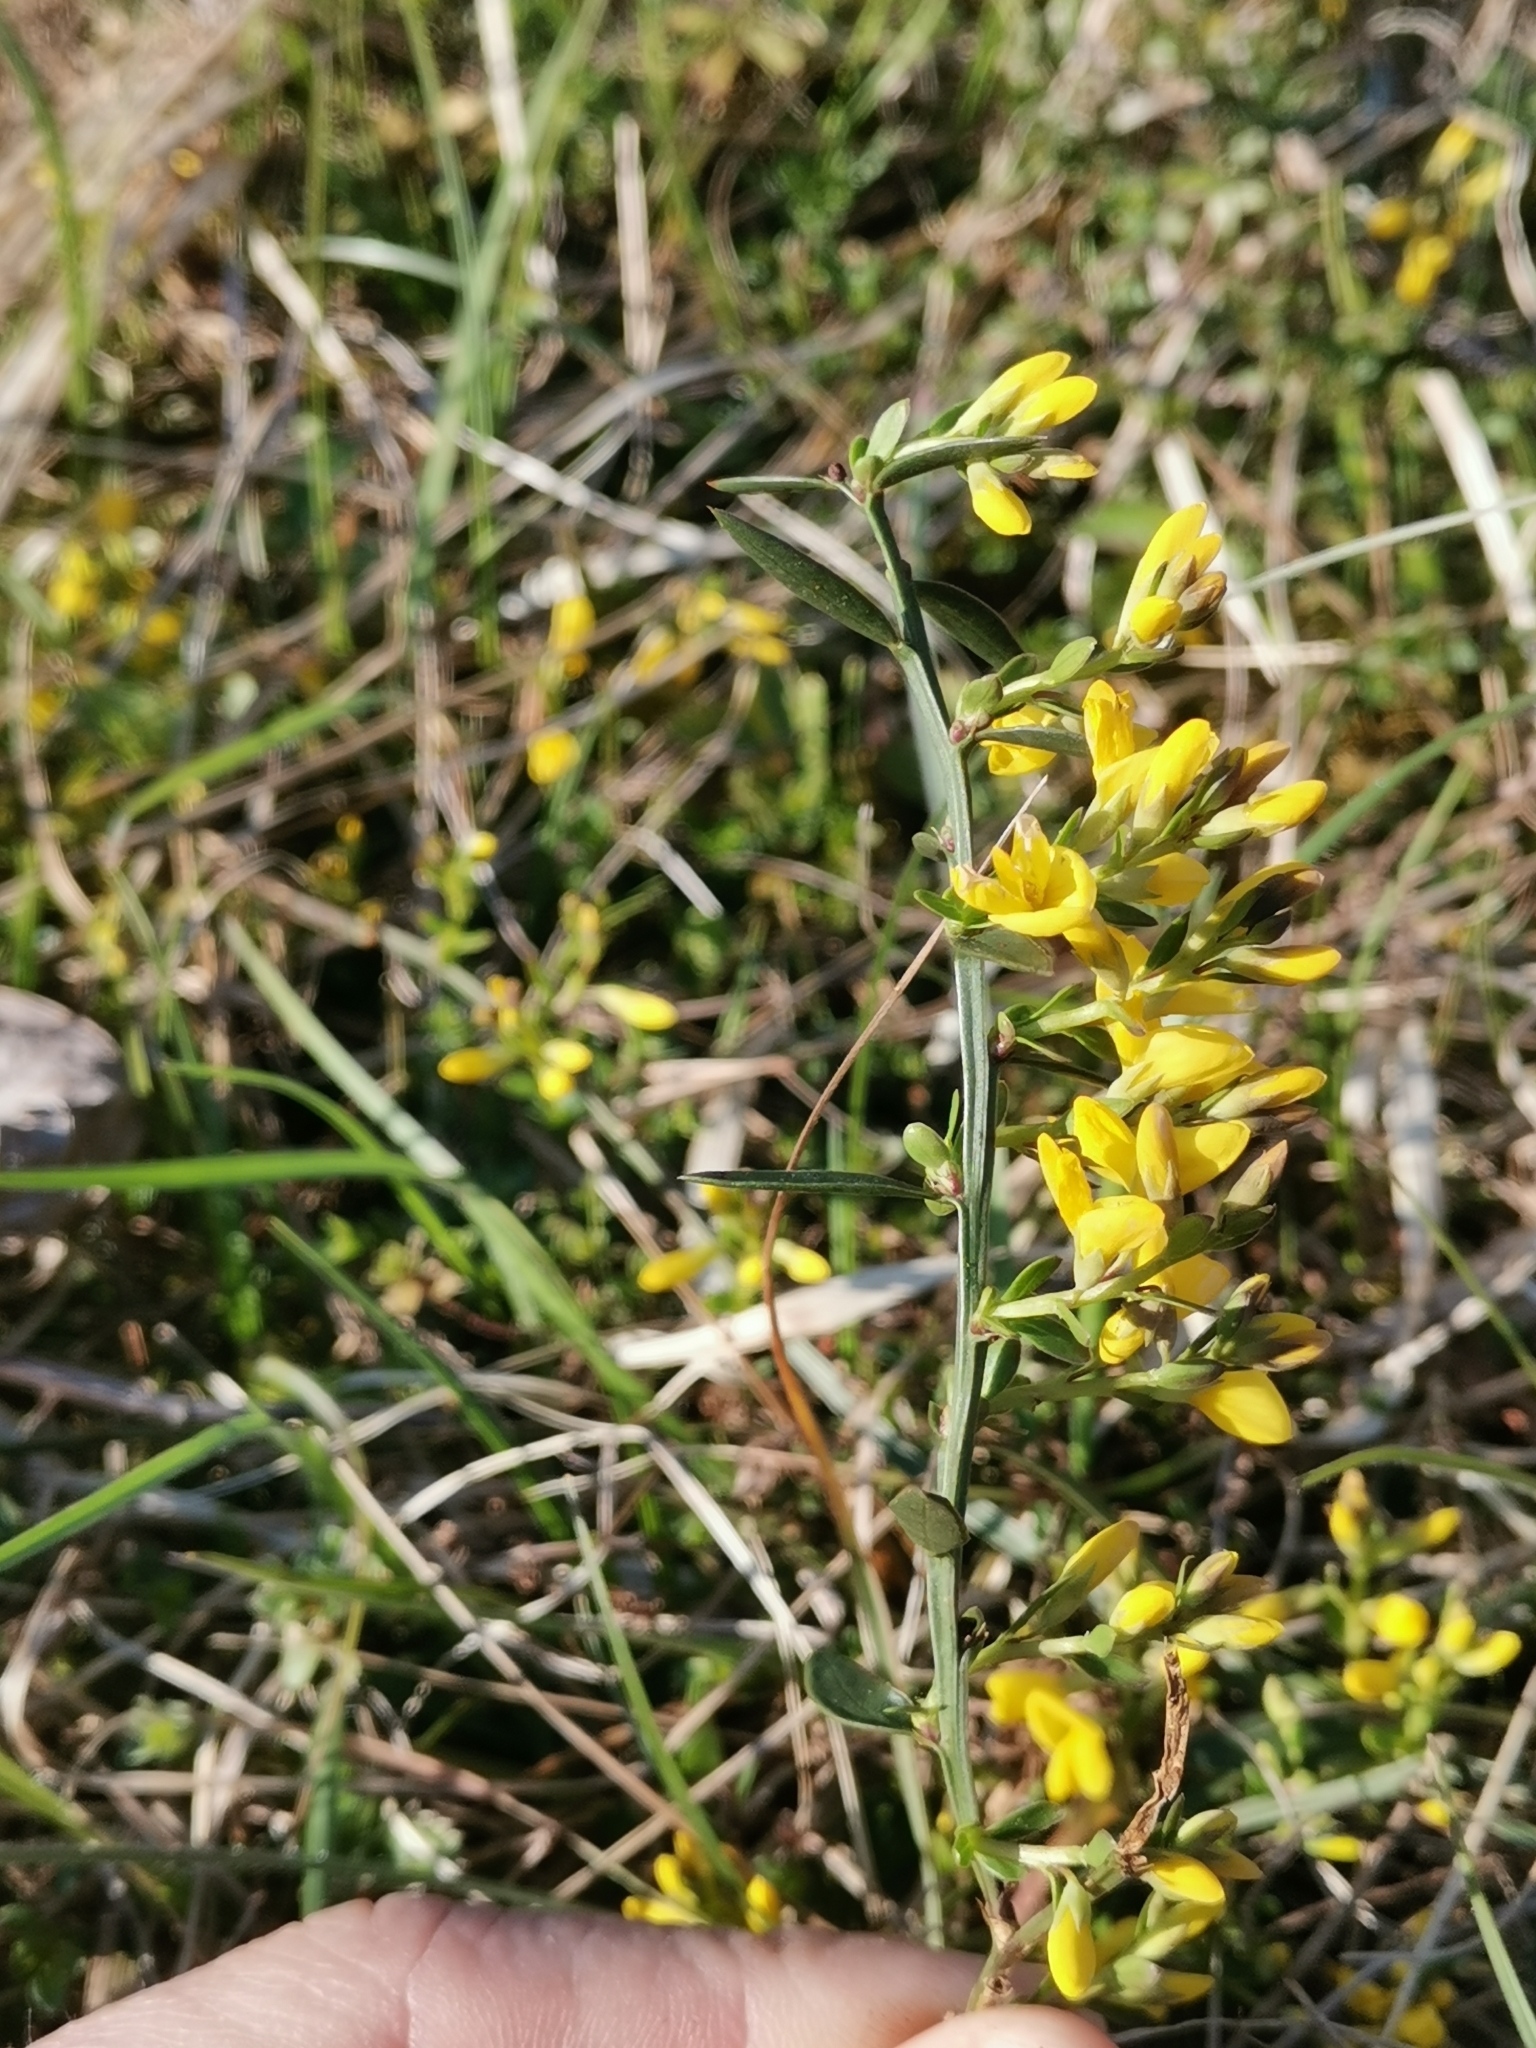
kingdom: Plantae
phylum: Tracheophyta
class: Magnoliopsida
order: Fabales
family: Fabaceae
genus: Genista
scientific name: Genista januensis
